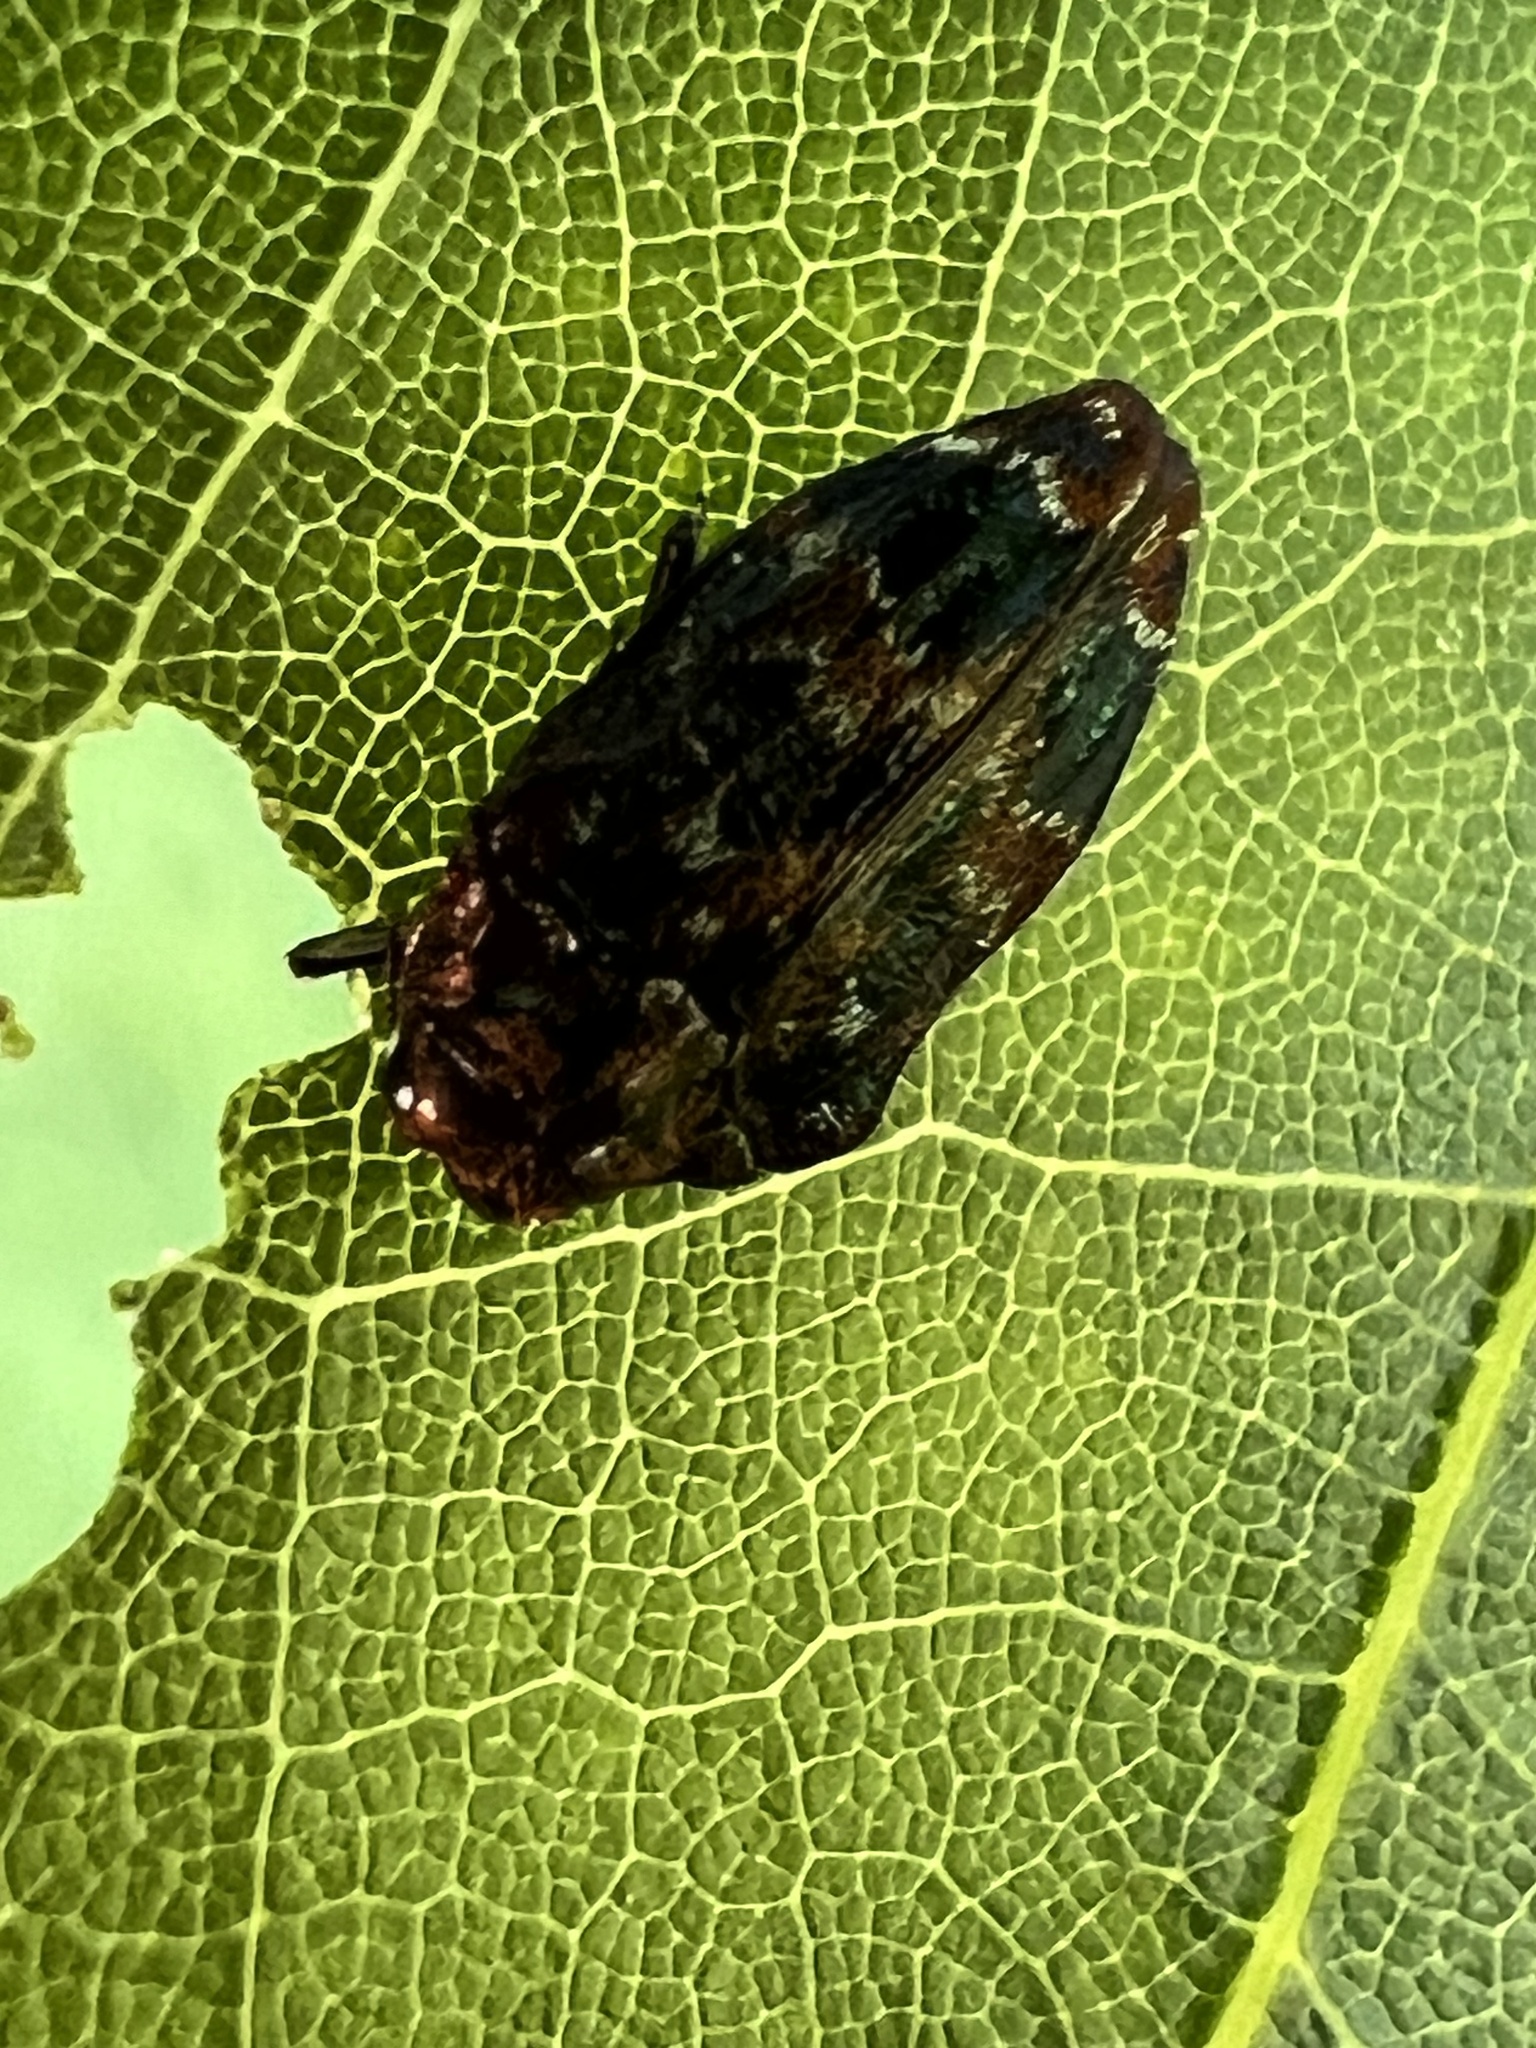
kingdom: Animalia
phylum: Arthropoda
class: Insecta
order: Coleoptera
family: Buprestidae
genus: Brachys
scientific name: Brachys ovatus
